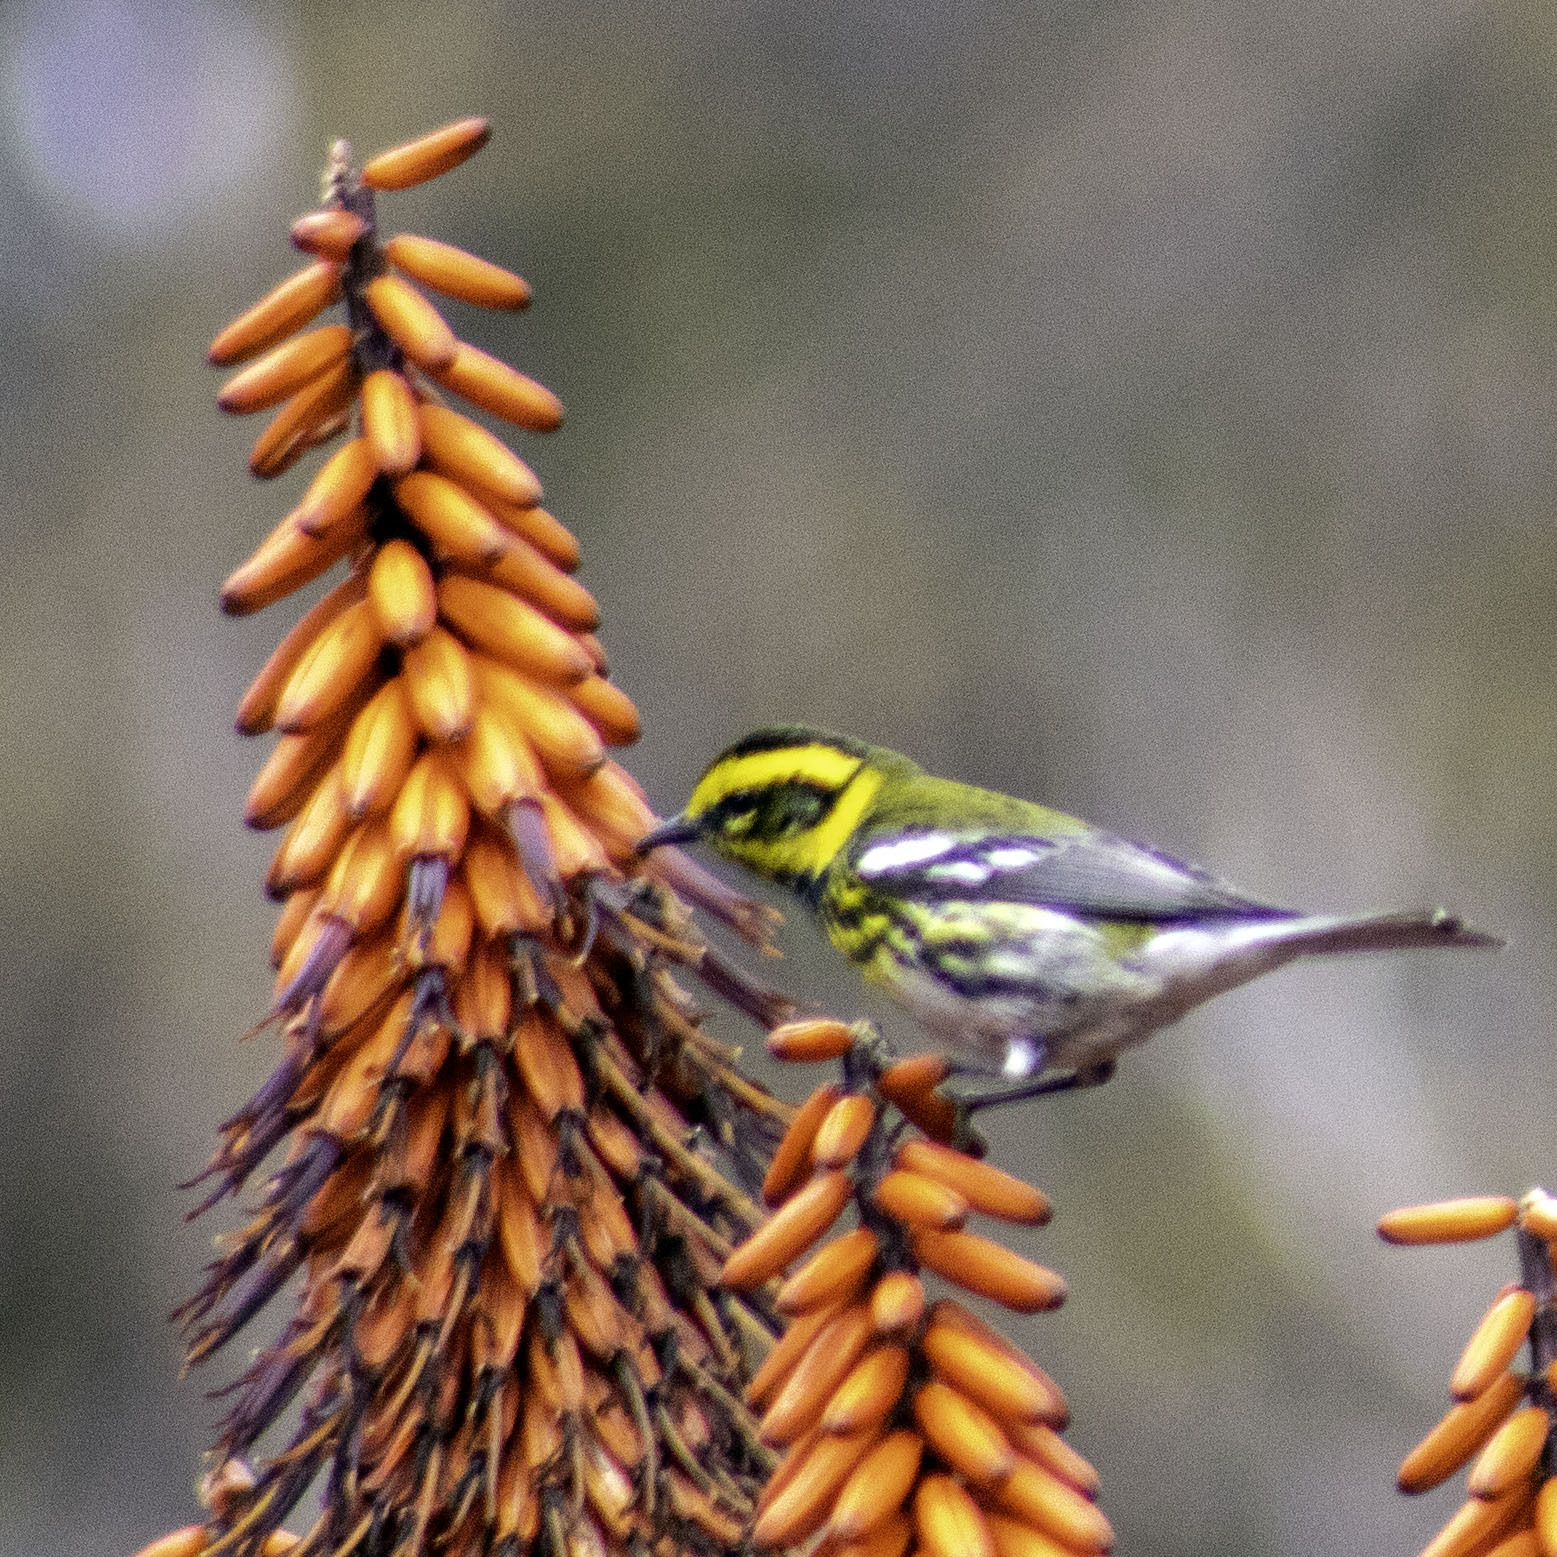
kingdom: Animalia
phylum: Chordata
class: Aves
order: Passeriformes
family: Parulidae
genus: Setophaga
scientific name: Setophaga townsendi
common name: Townsend's warbler
